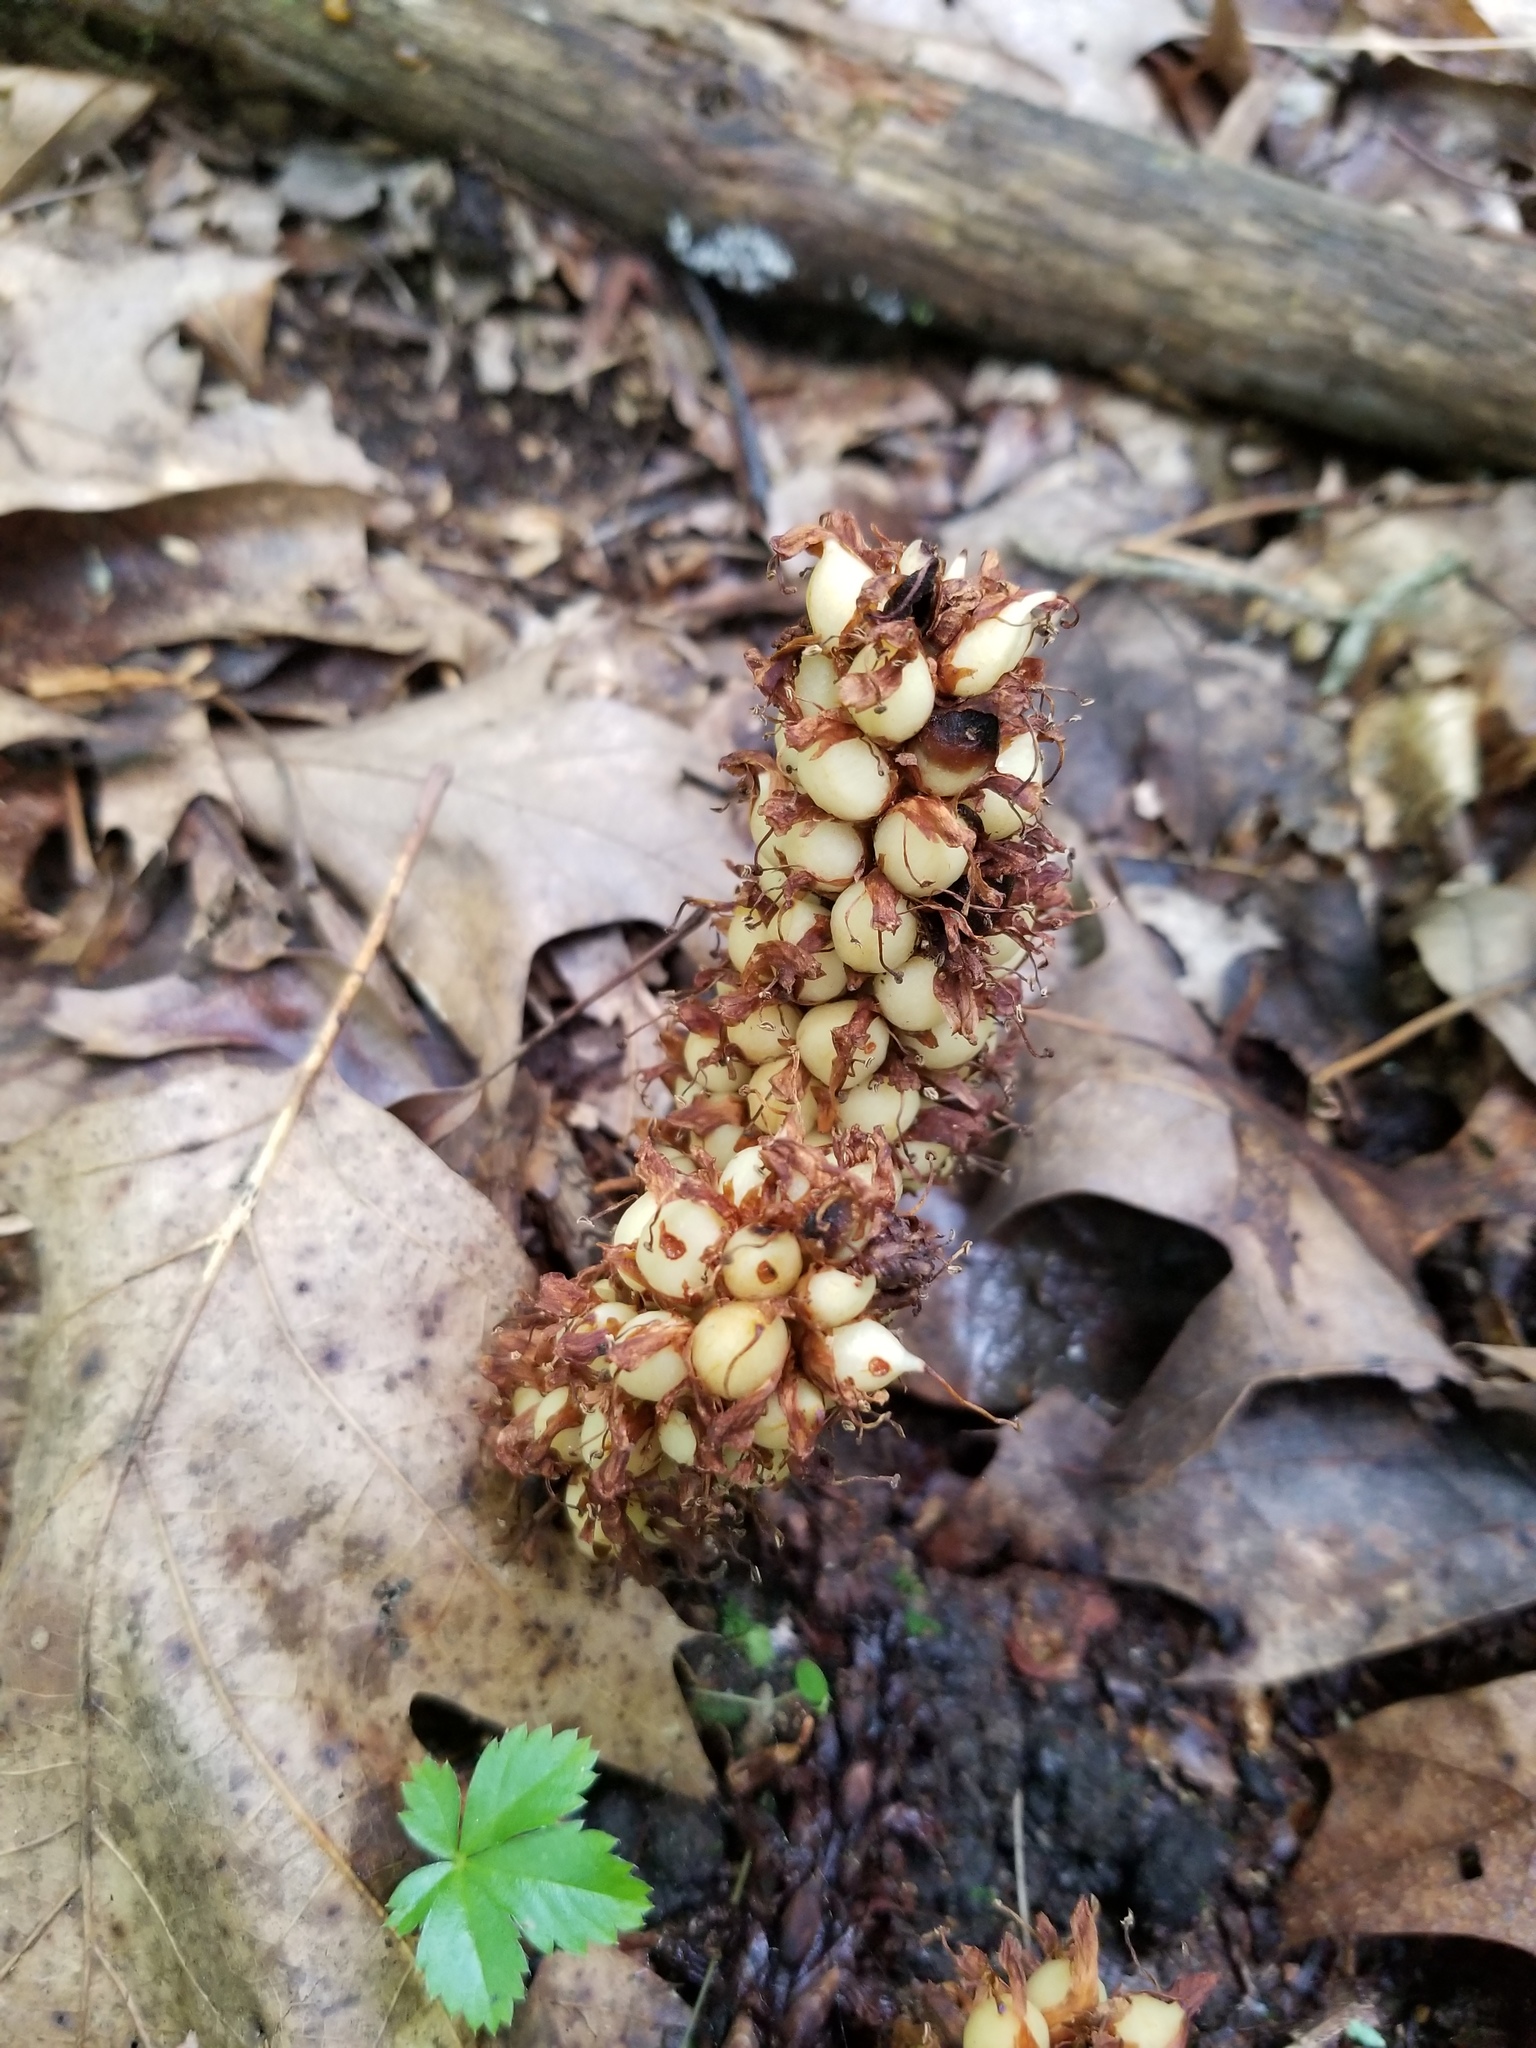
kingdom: Plantae
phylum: Tracheophyta
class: Magnoliopsida
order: Lamiales
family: Orobanchaceae
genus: Conopholis
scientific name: Conopholis americana
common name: American cancer-root
